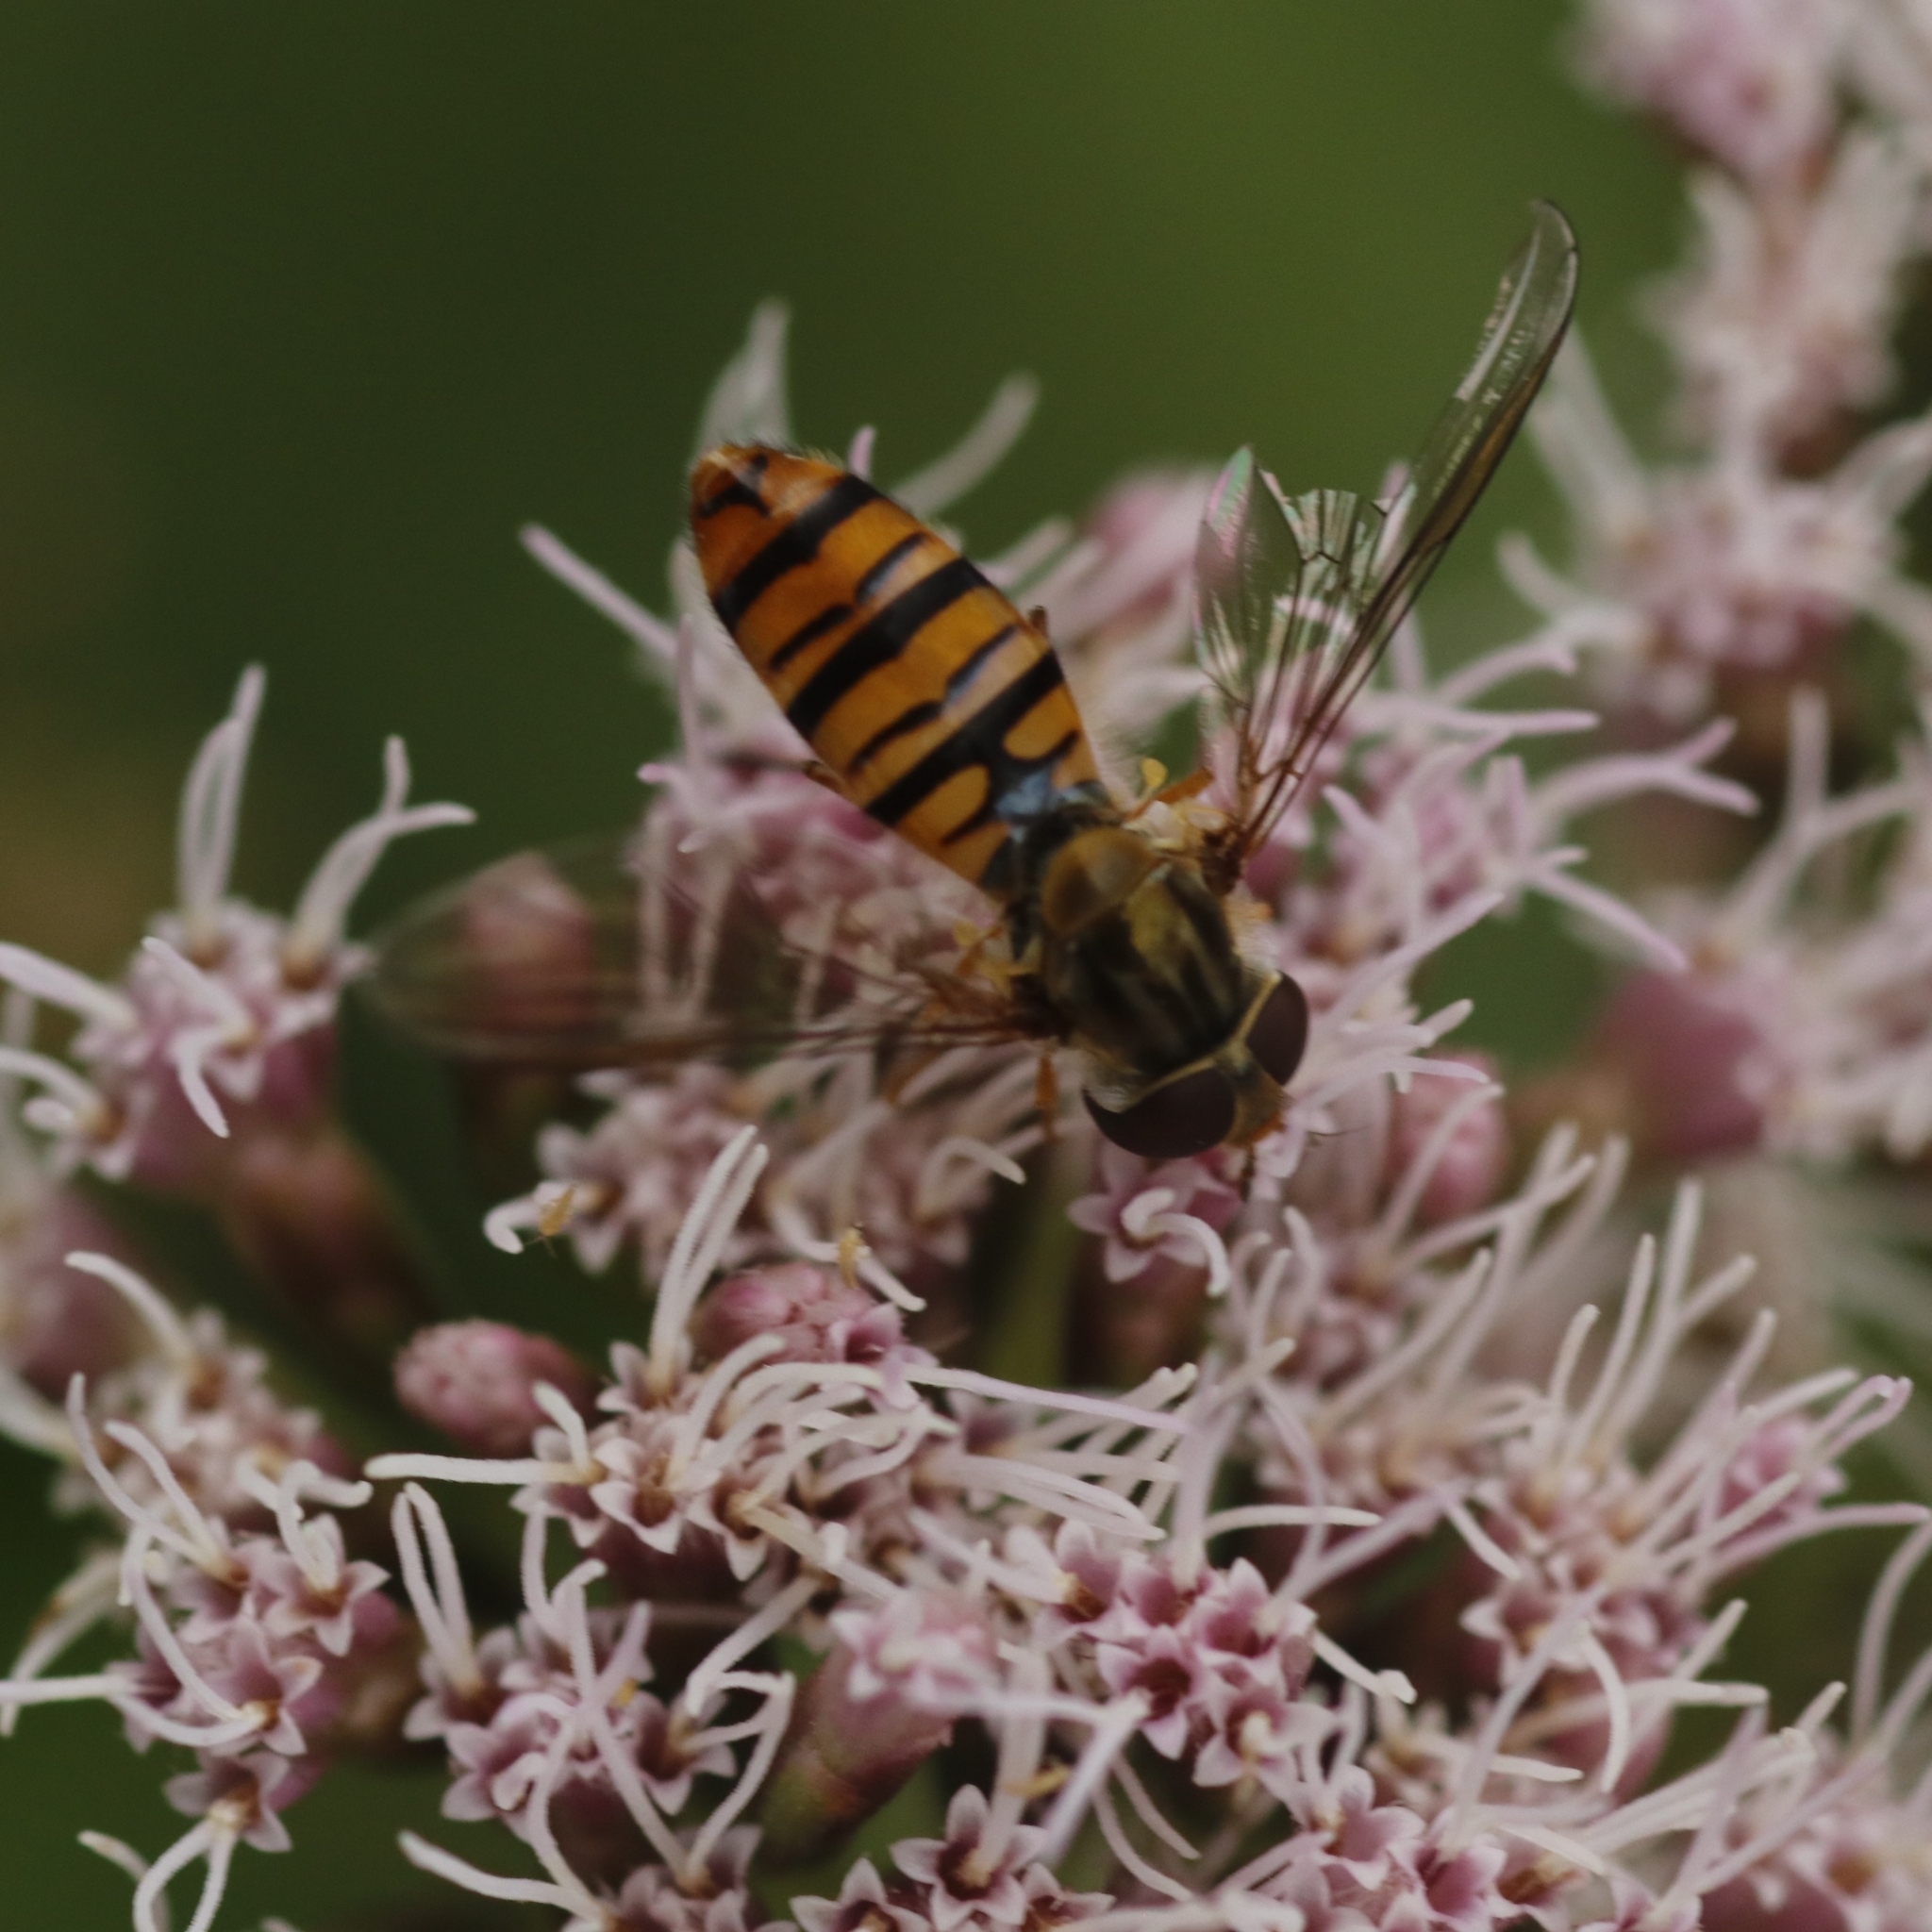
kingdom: Animalia
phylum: Arthropoda
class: Insecta
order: Diptera
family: Syrphidae
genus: Episyrphus
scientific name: Episyrphus balteatus
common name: Marmalade hoverfly
